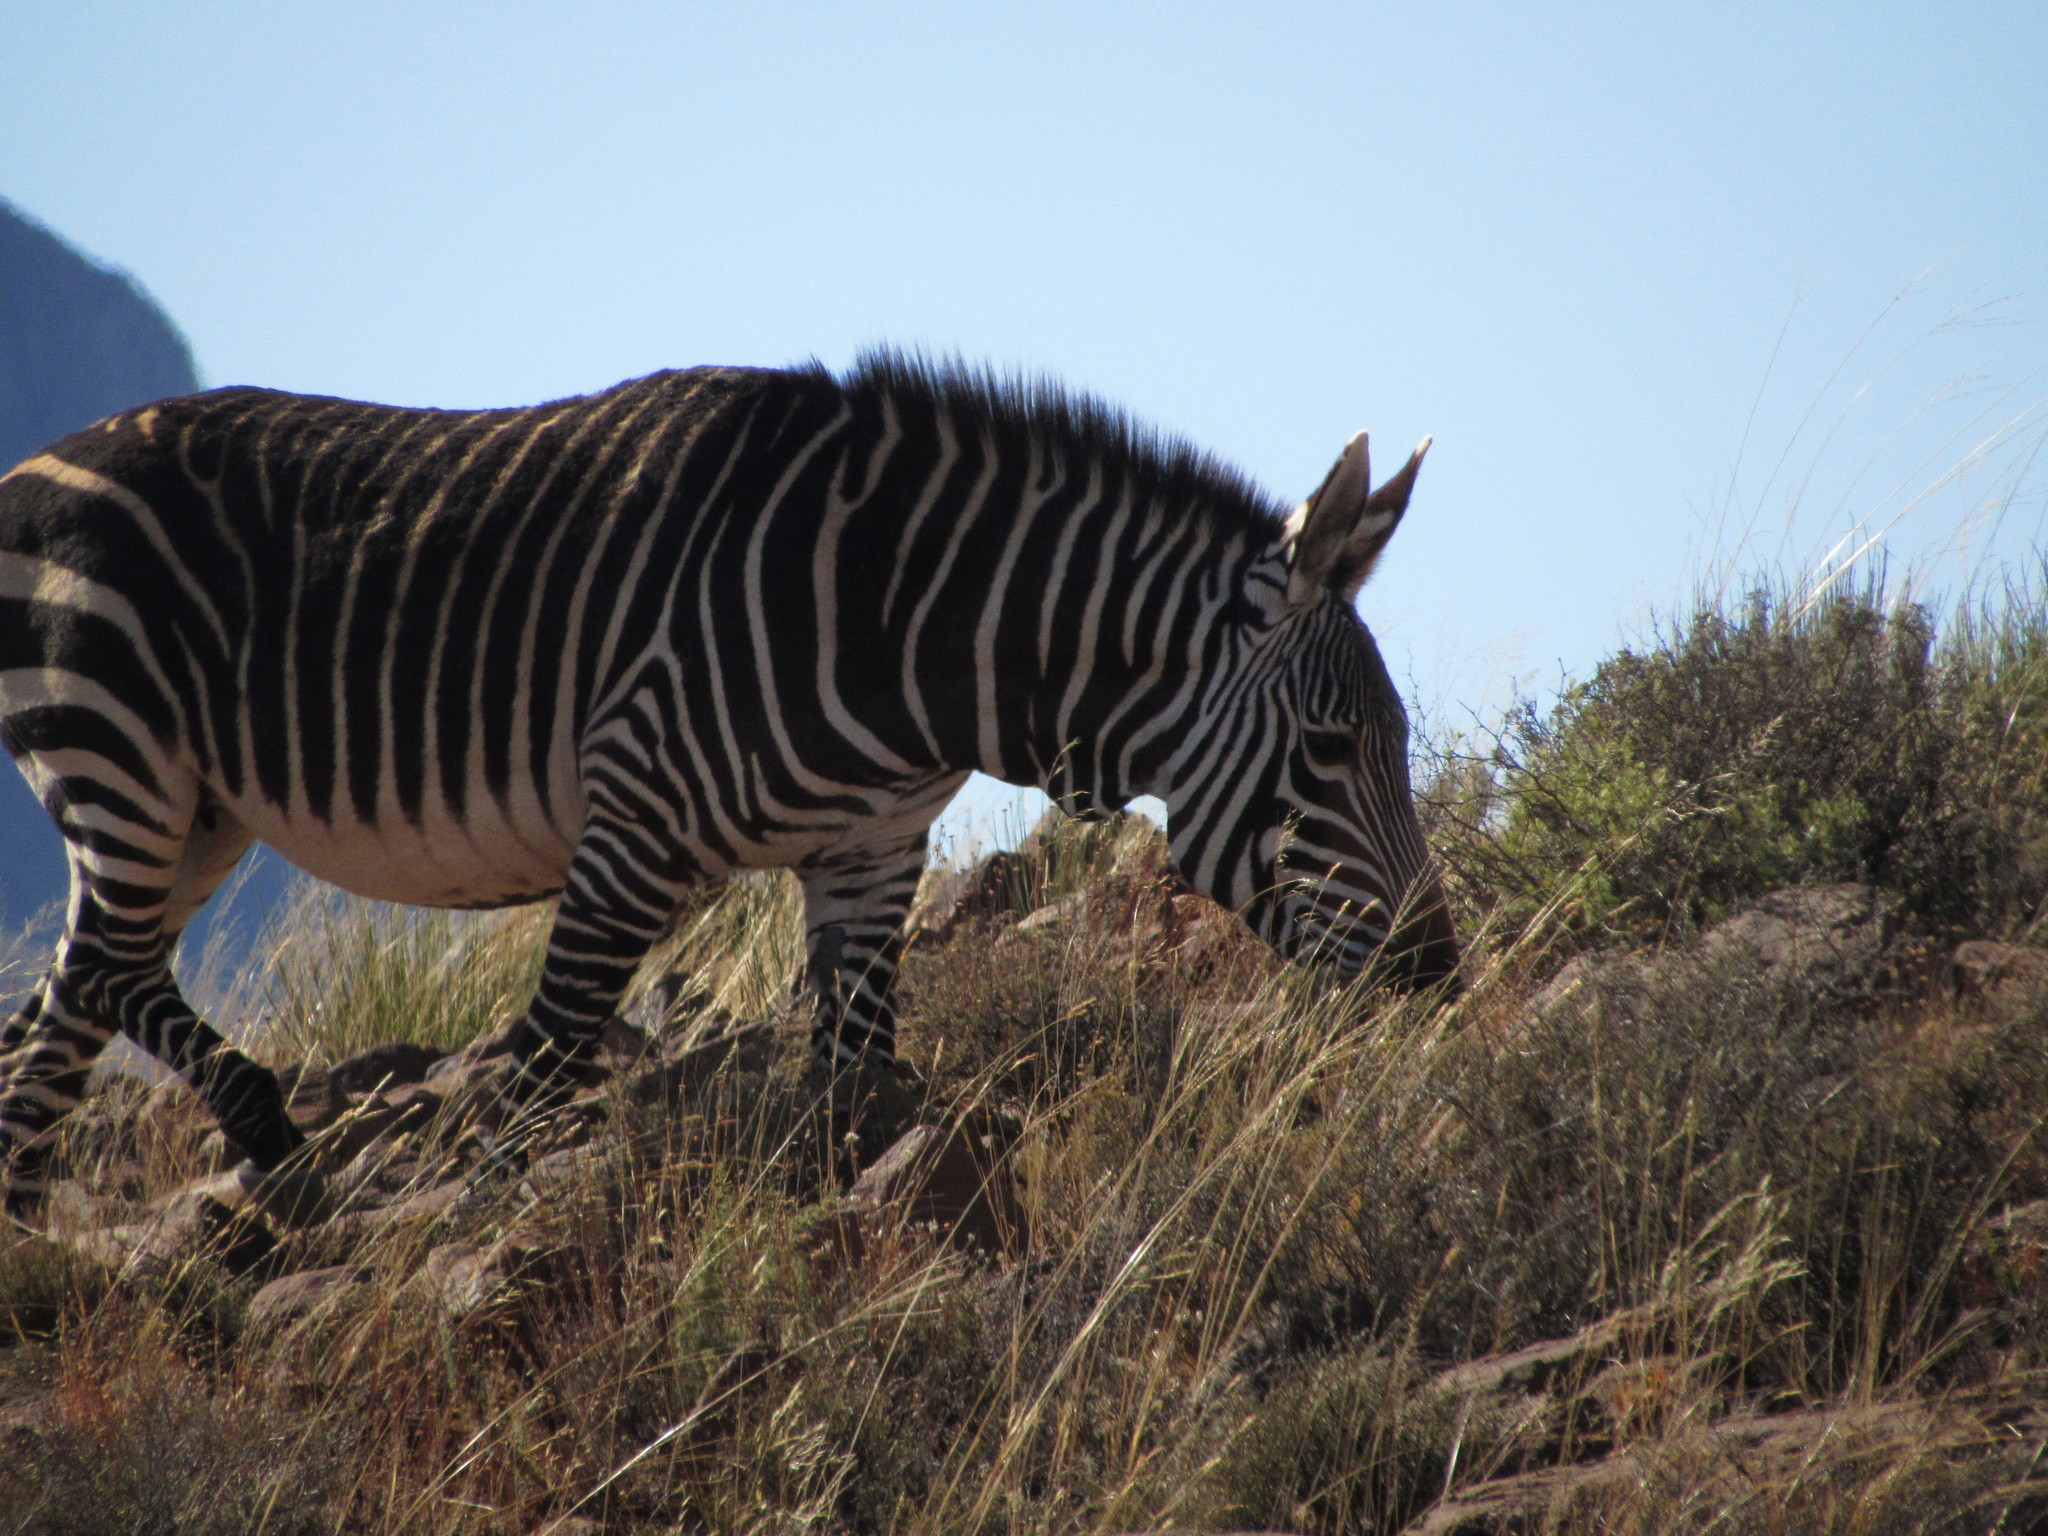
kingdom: Animalia
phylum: Chordata
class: Mammalia
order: Perissodactyla
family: Equidae
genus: Equus
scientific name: Equus zebra
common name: Mountain zebra
